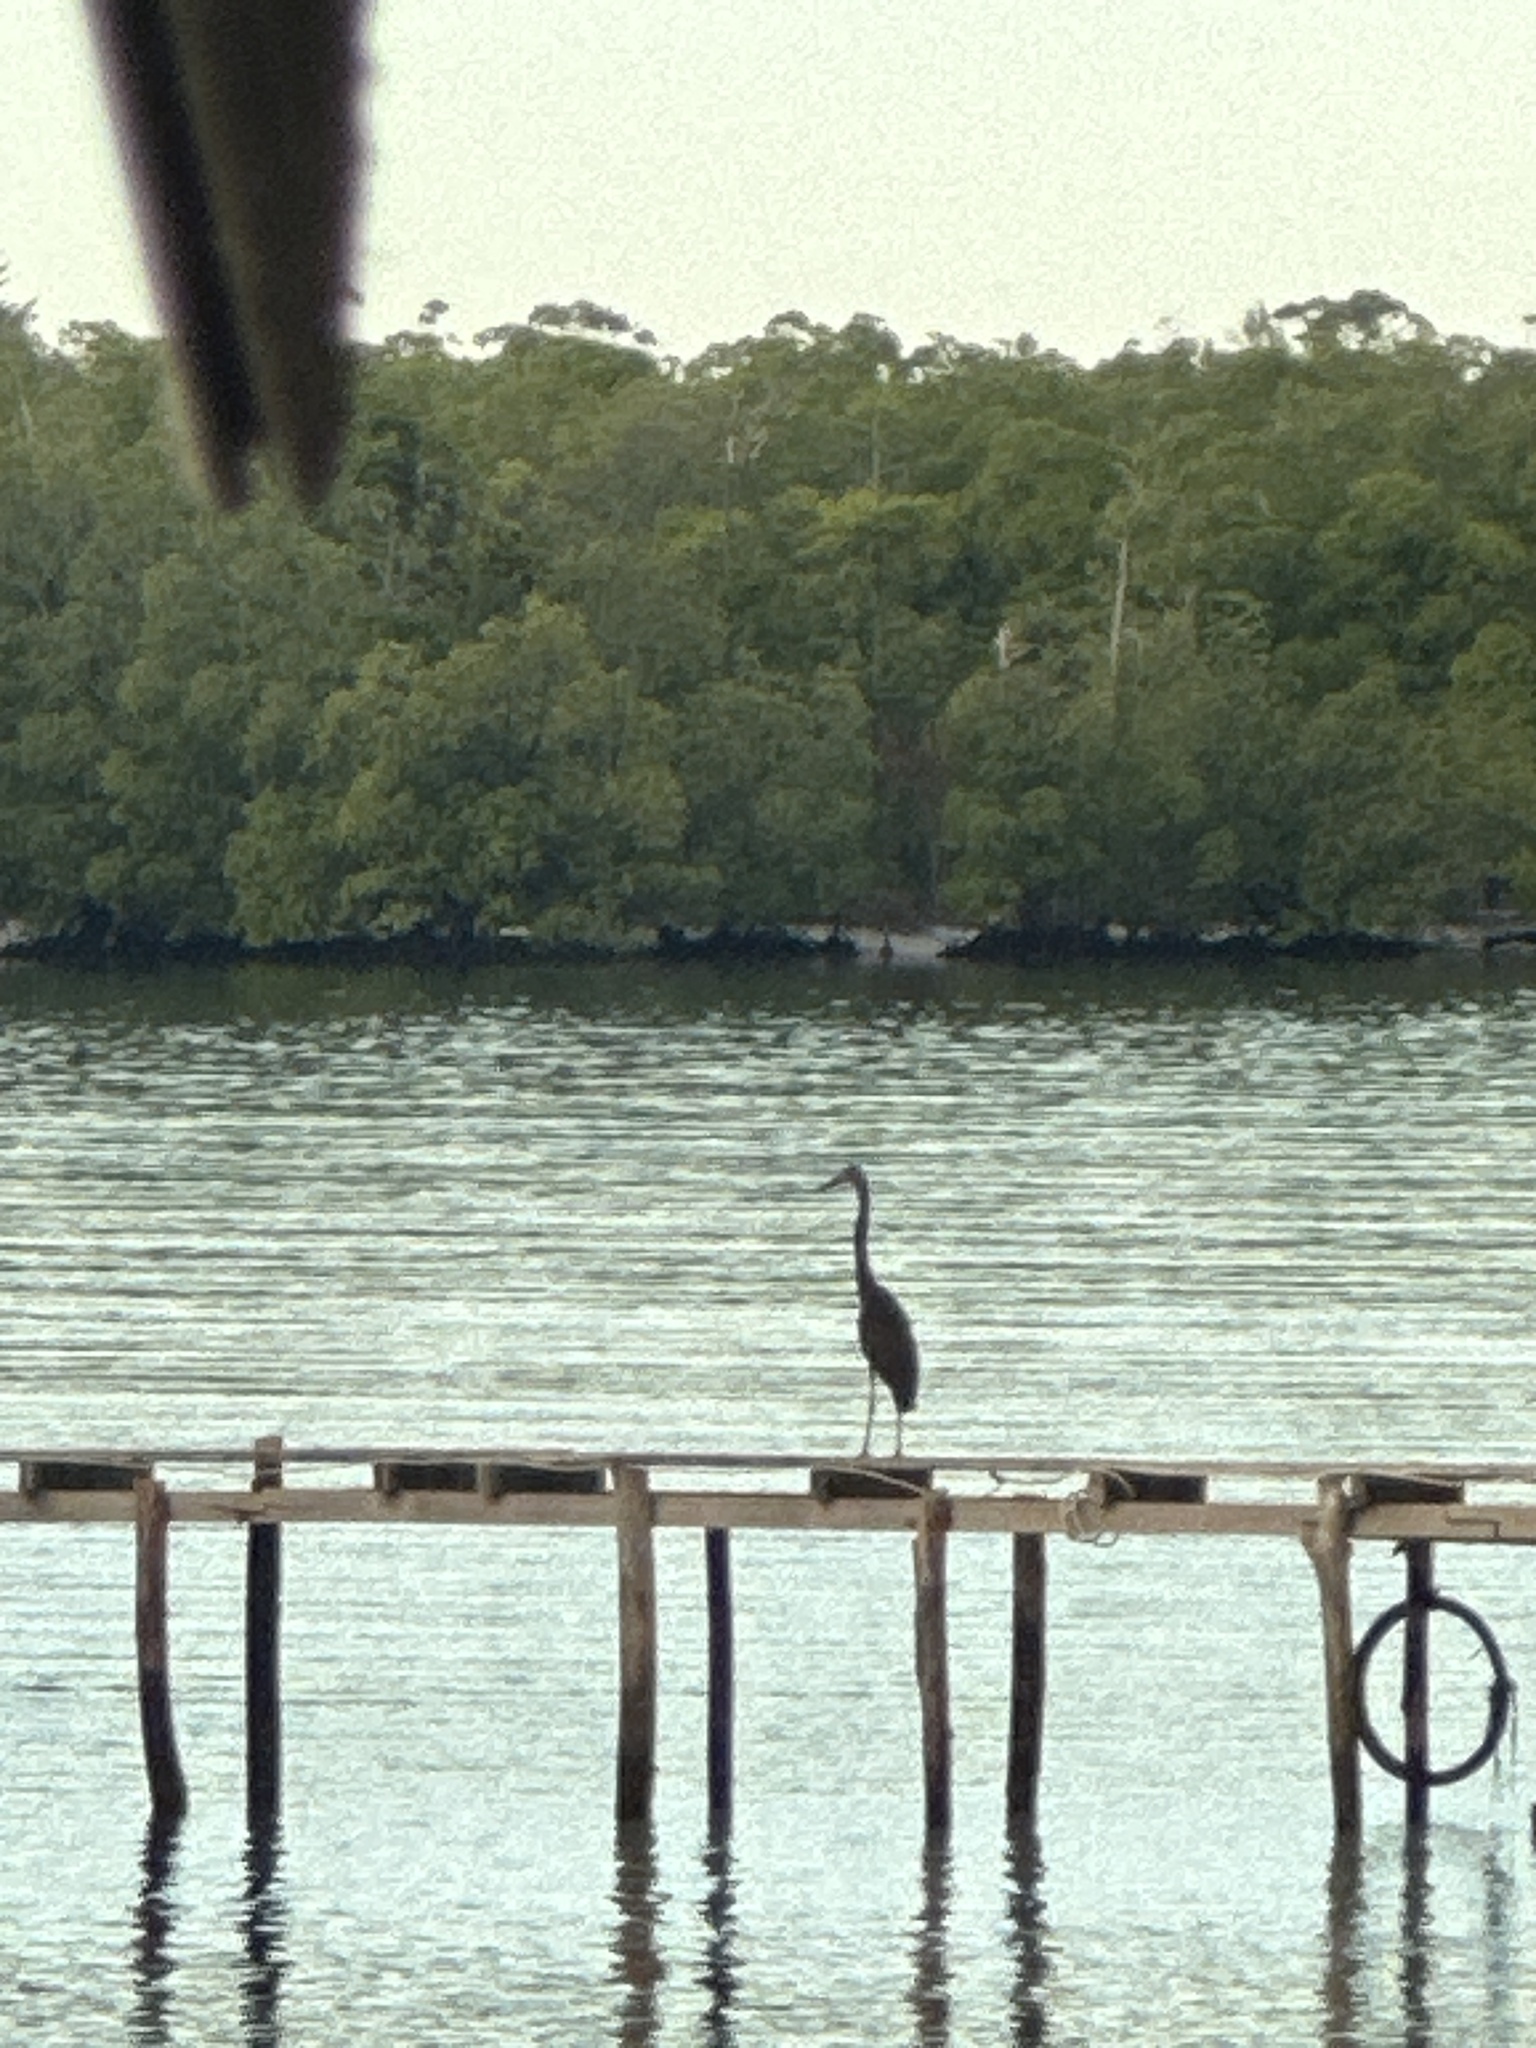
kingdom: Animalia
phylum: Chordata
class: Aves
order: Pelecaniformes
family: Ardeidae
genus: Ardea
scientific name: Ardea sumatrana
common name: Great-billed heron
